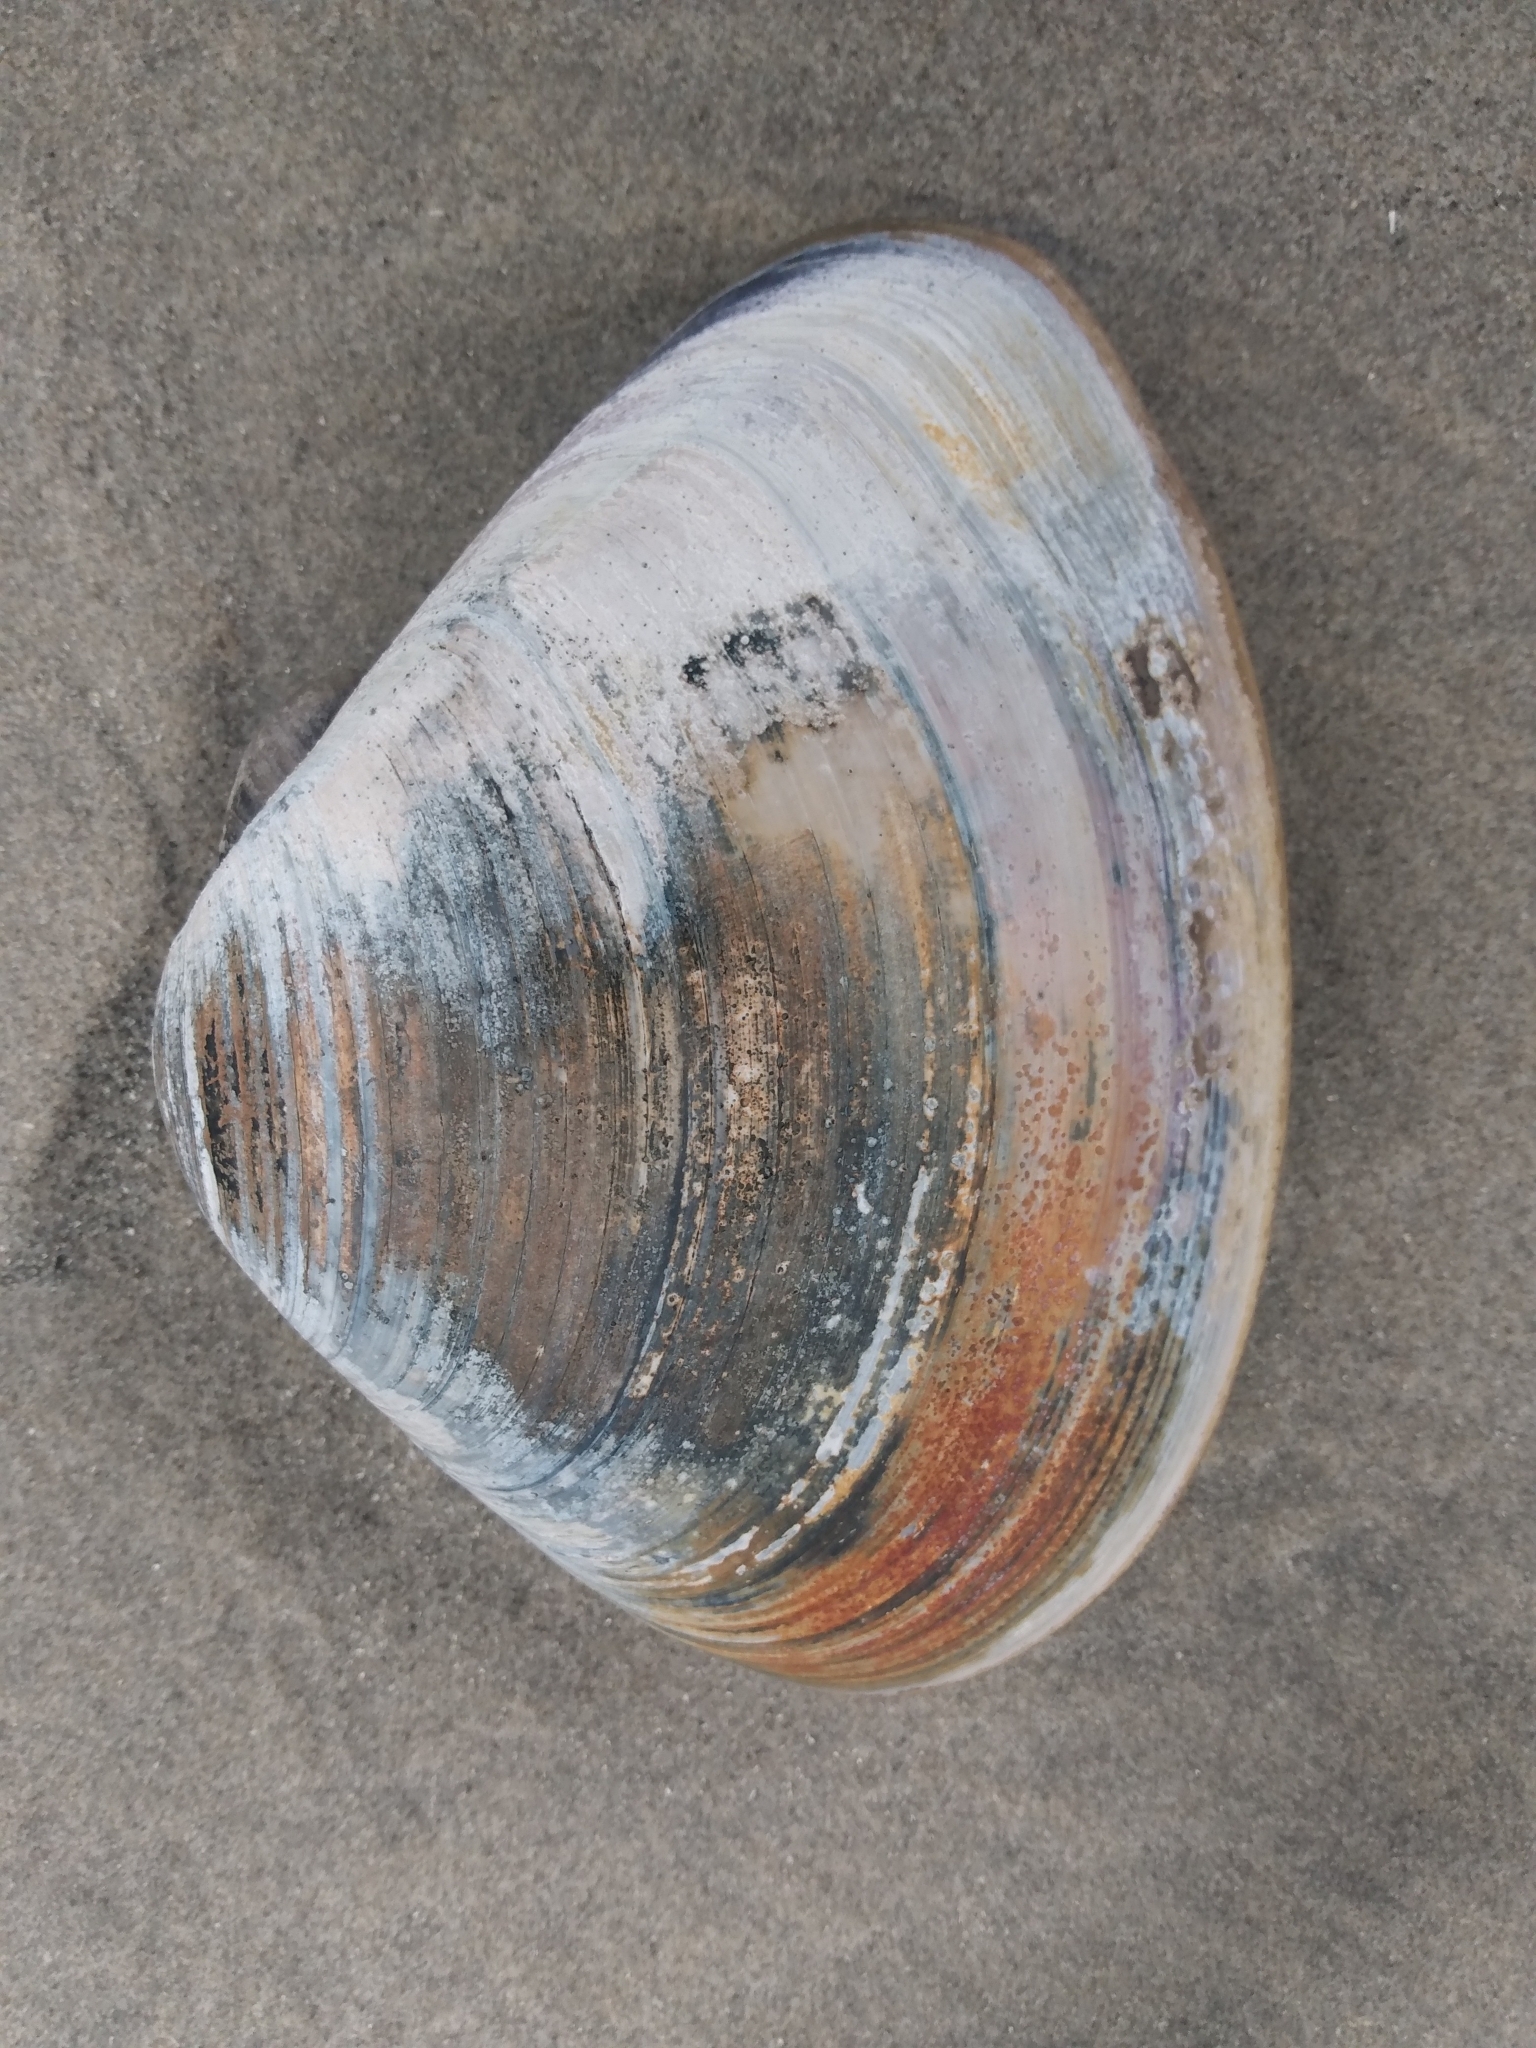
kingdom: Animalia
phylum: Mollusca
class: Bivalvia
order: Venerida
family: Veneridae
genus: Tivela
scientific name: Tivela stultorum
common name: Pismo clam
